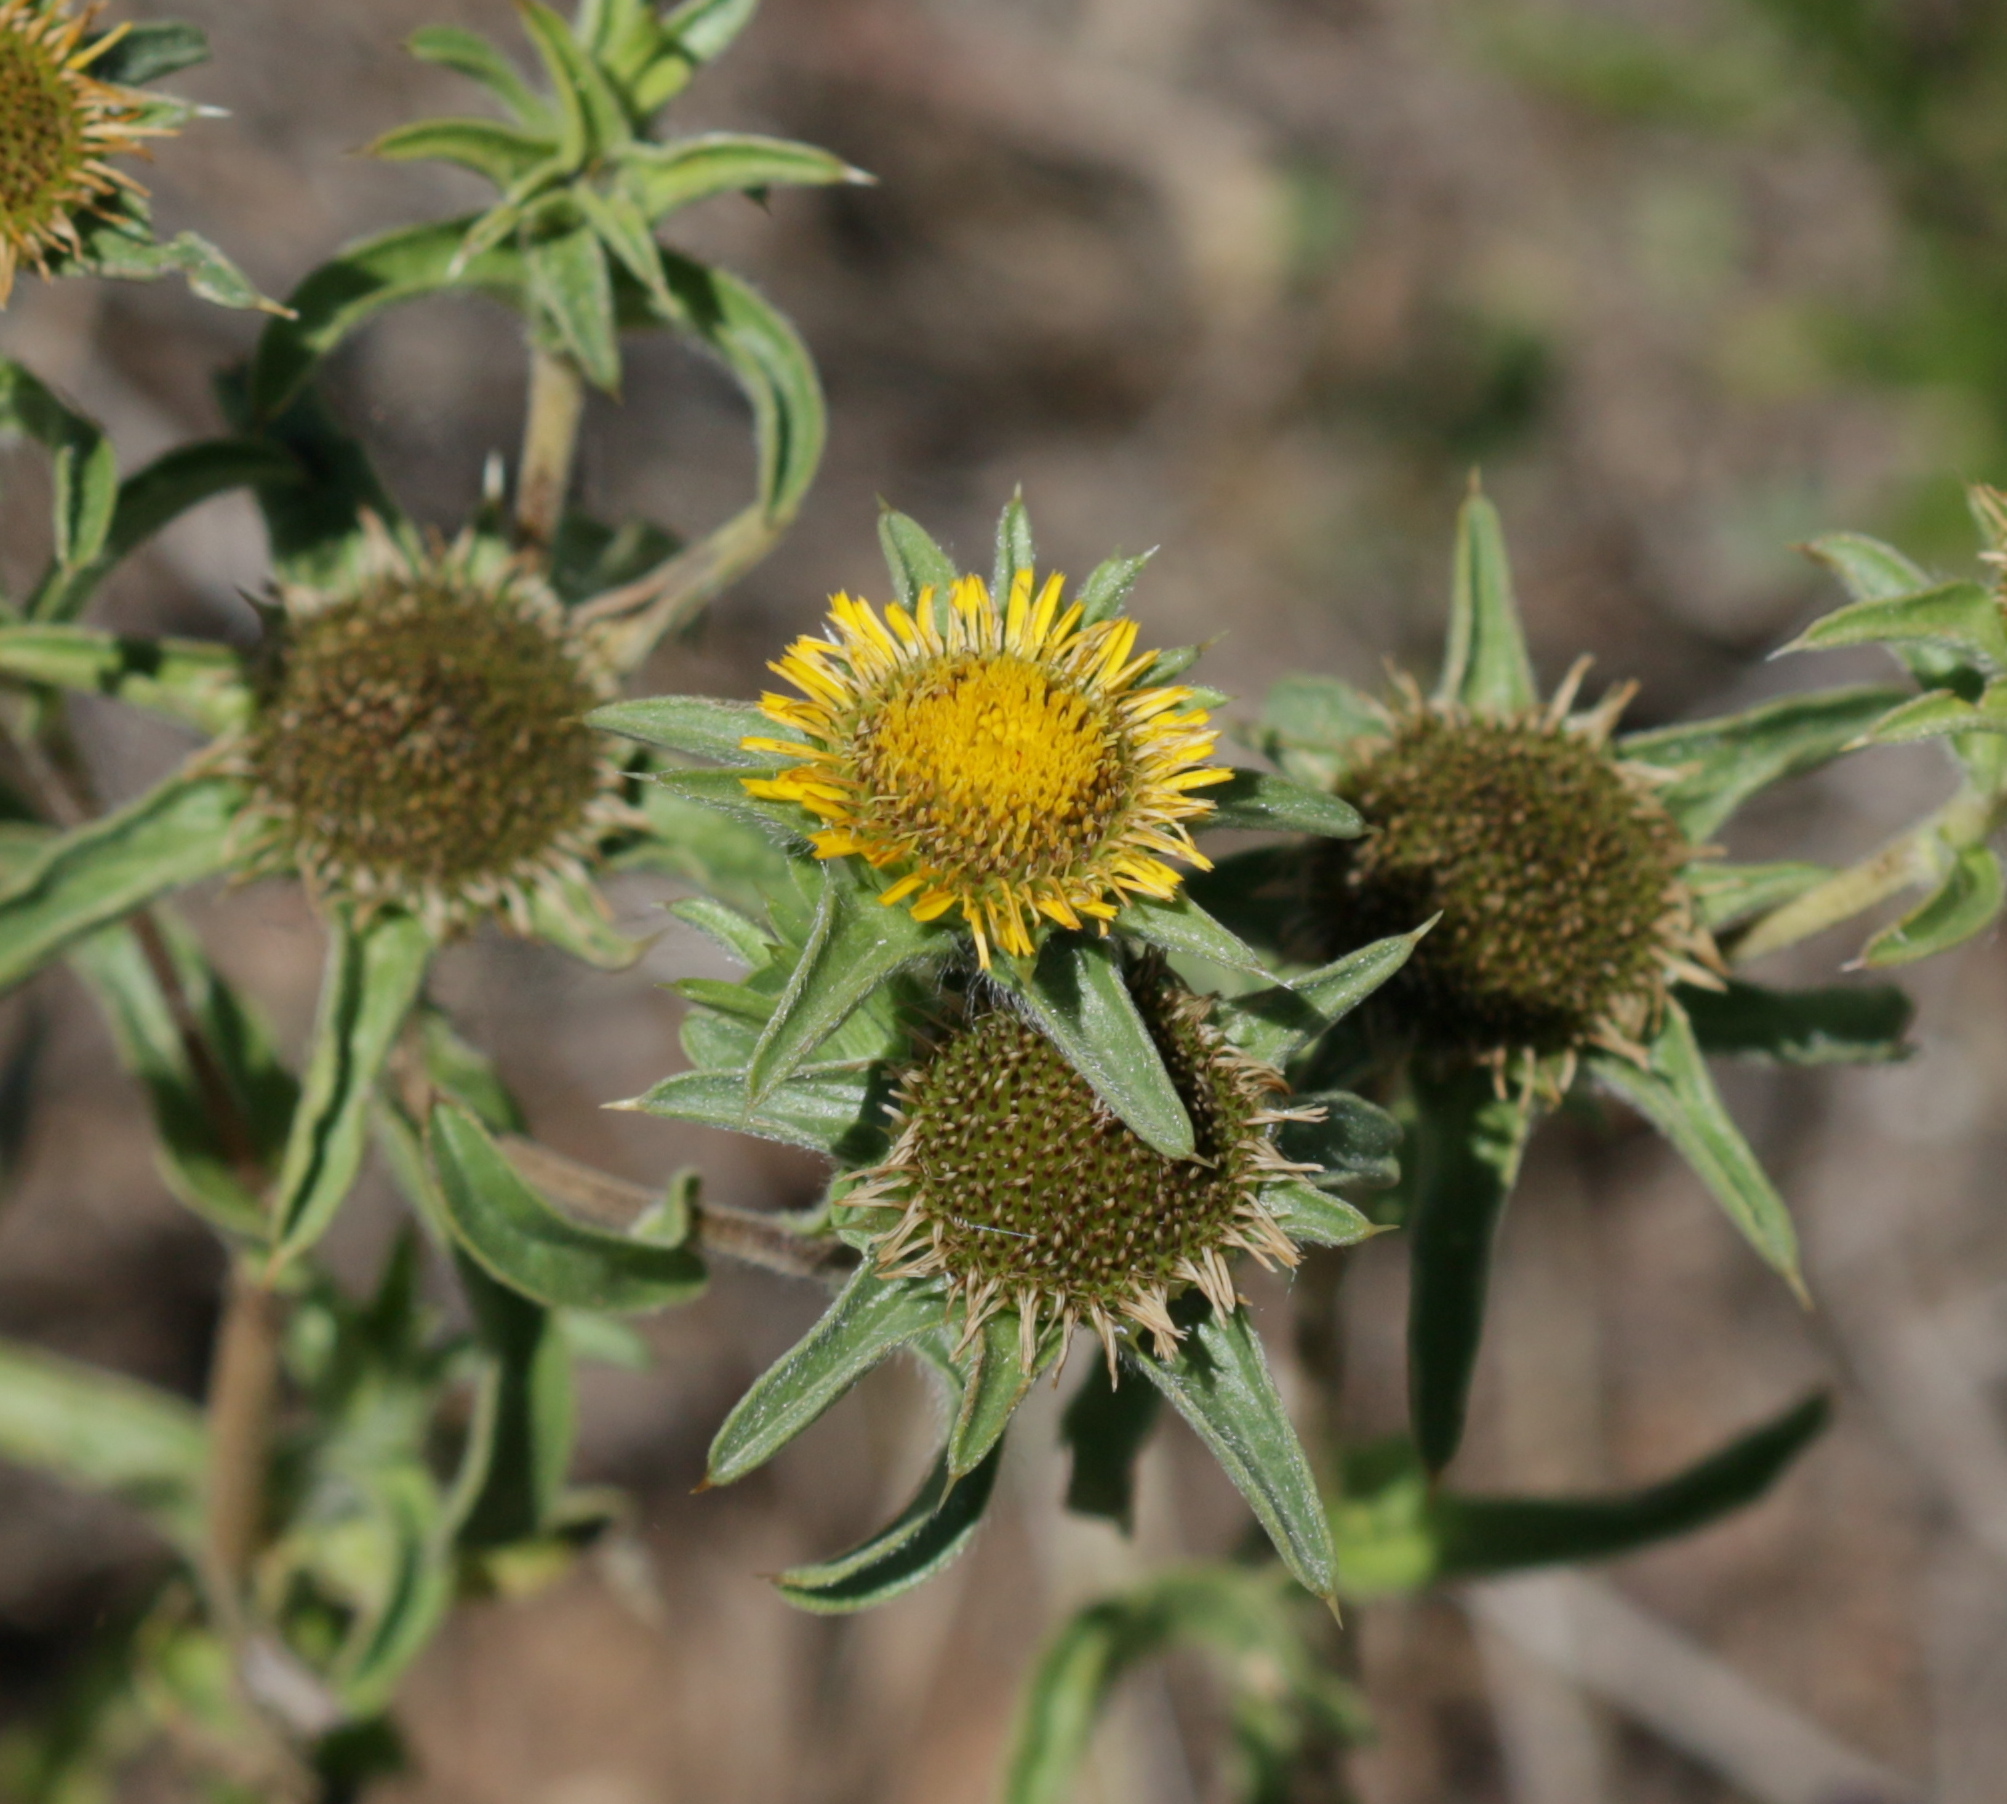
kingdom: Plantae
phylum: Tracheophyta
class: Magnoliopsida
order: Asterales
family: Asteraceae
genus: Pallenis
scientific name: Pallenis spinosa
